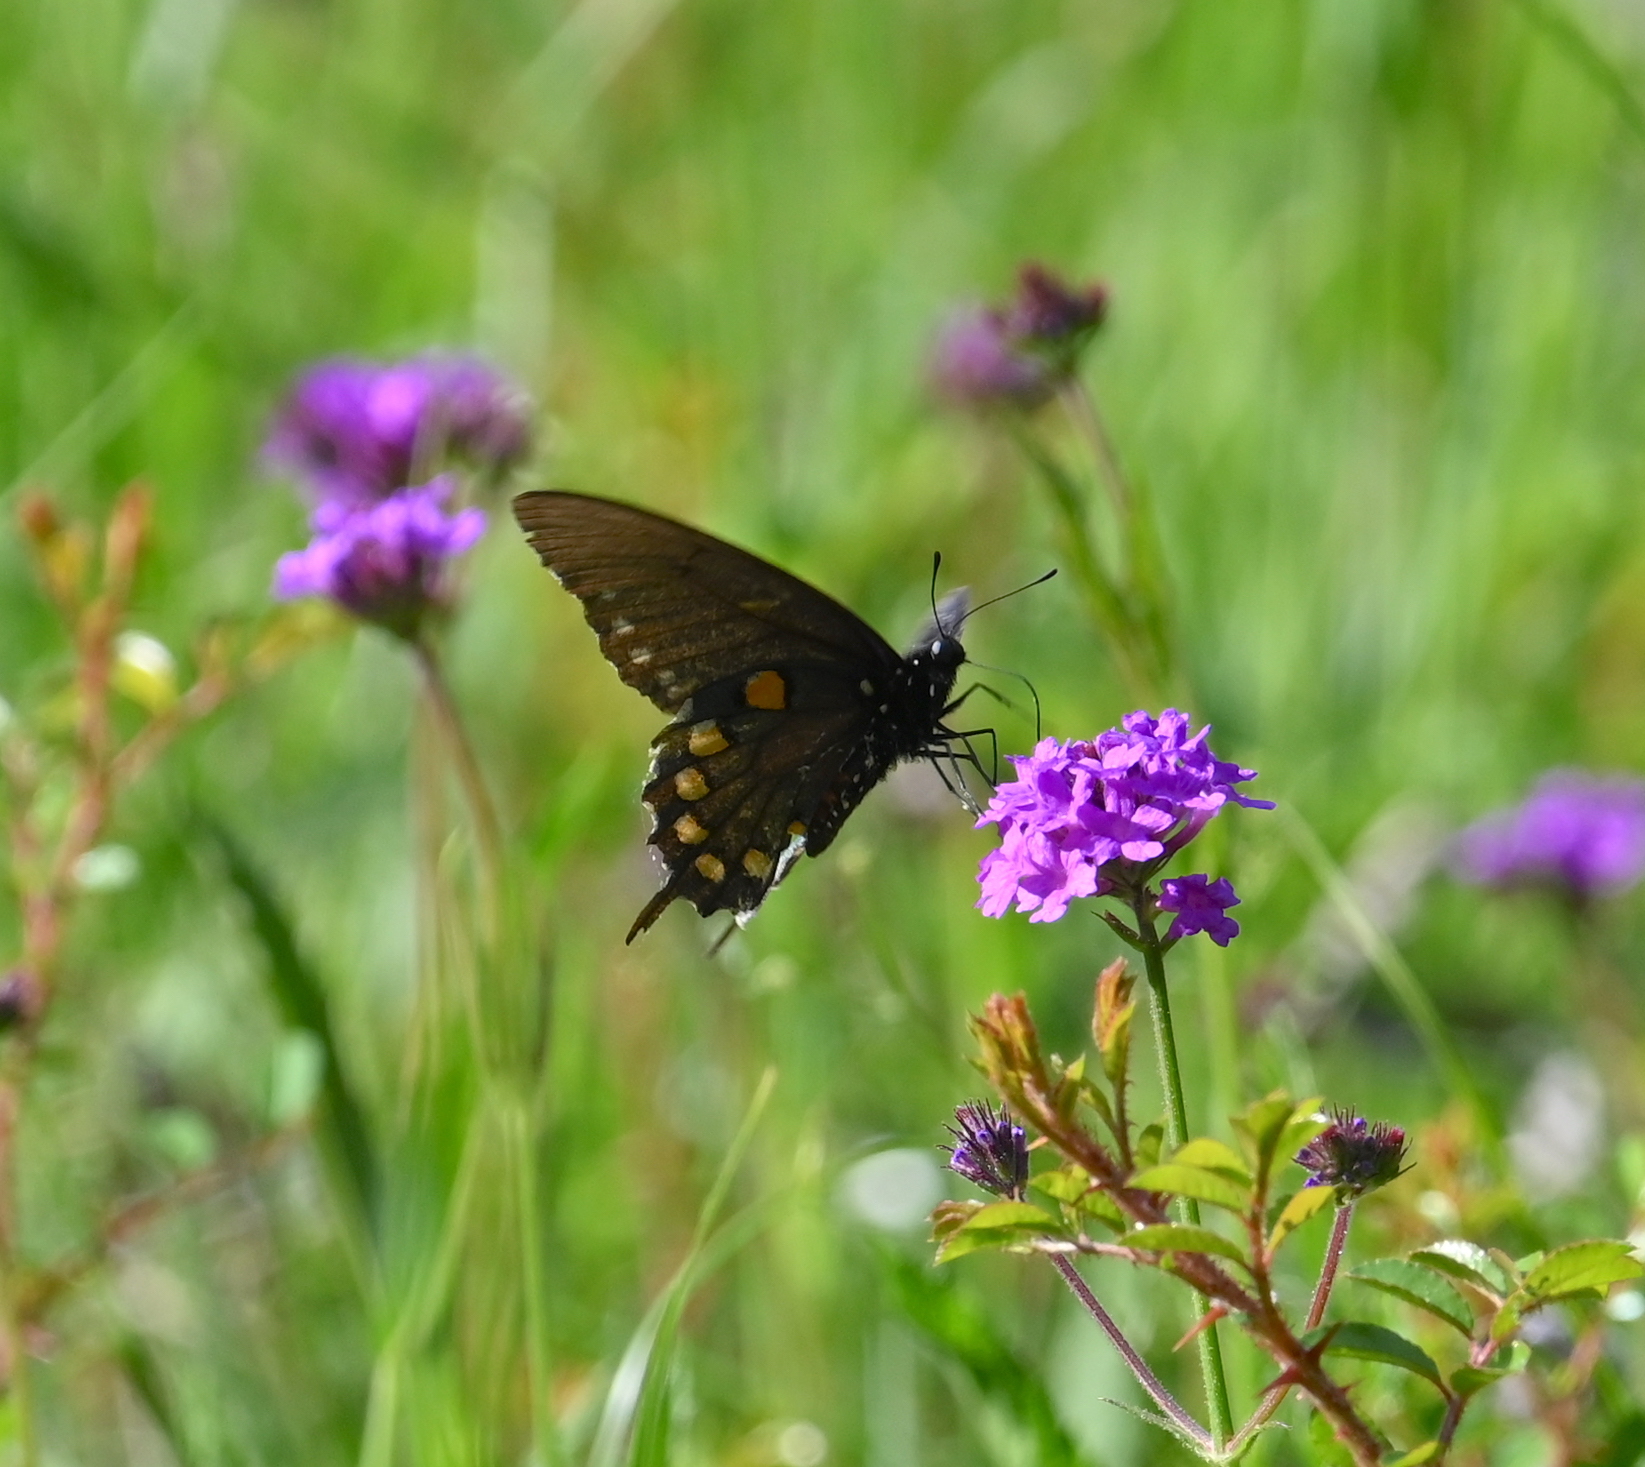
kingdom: Animalia
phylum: Arthropoda
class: Insecta
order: Lepidoptera
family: Papilionidae
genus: Battus
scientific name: Battus philenor
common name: Pipevine swallowtail
